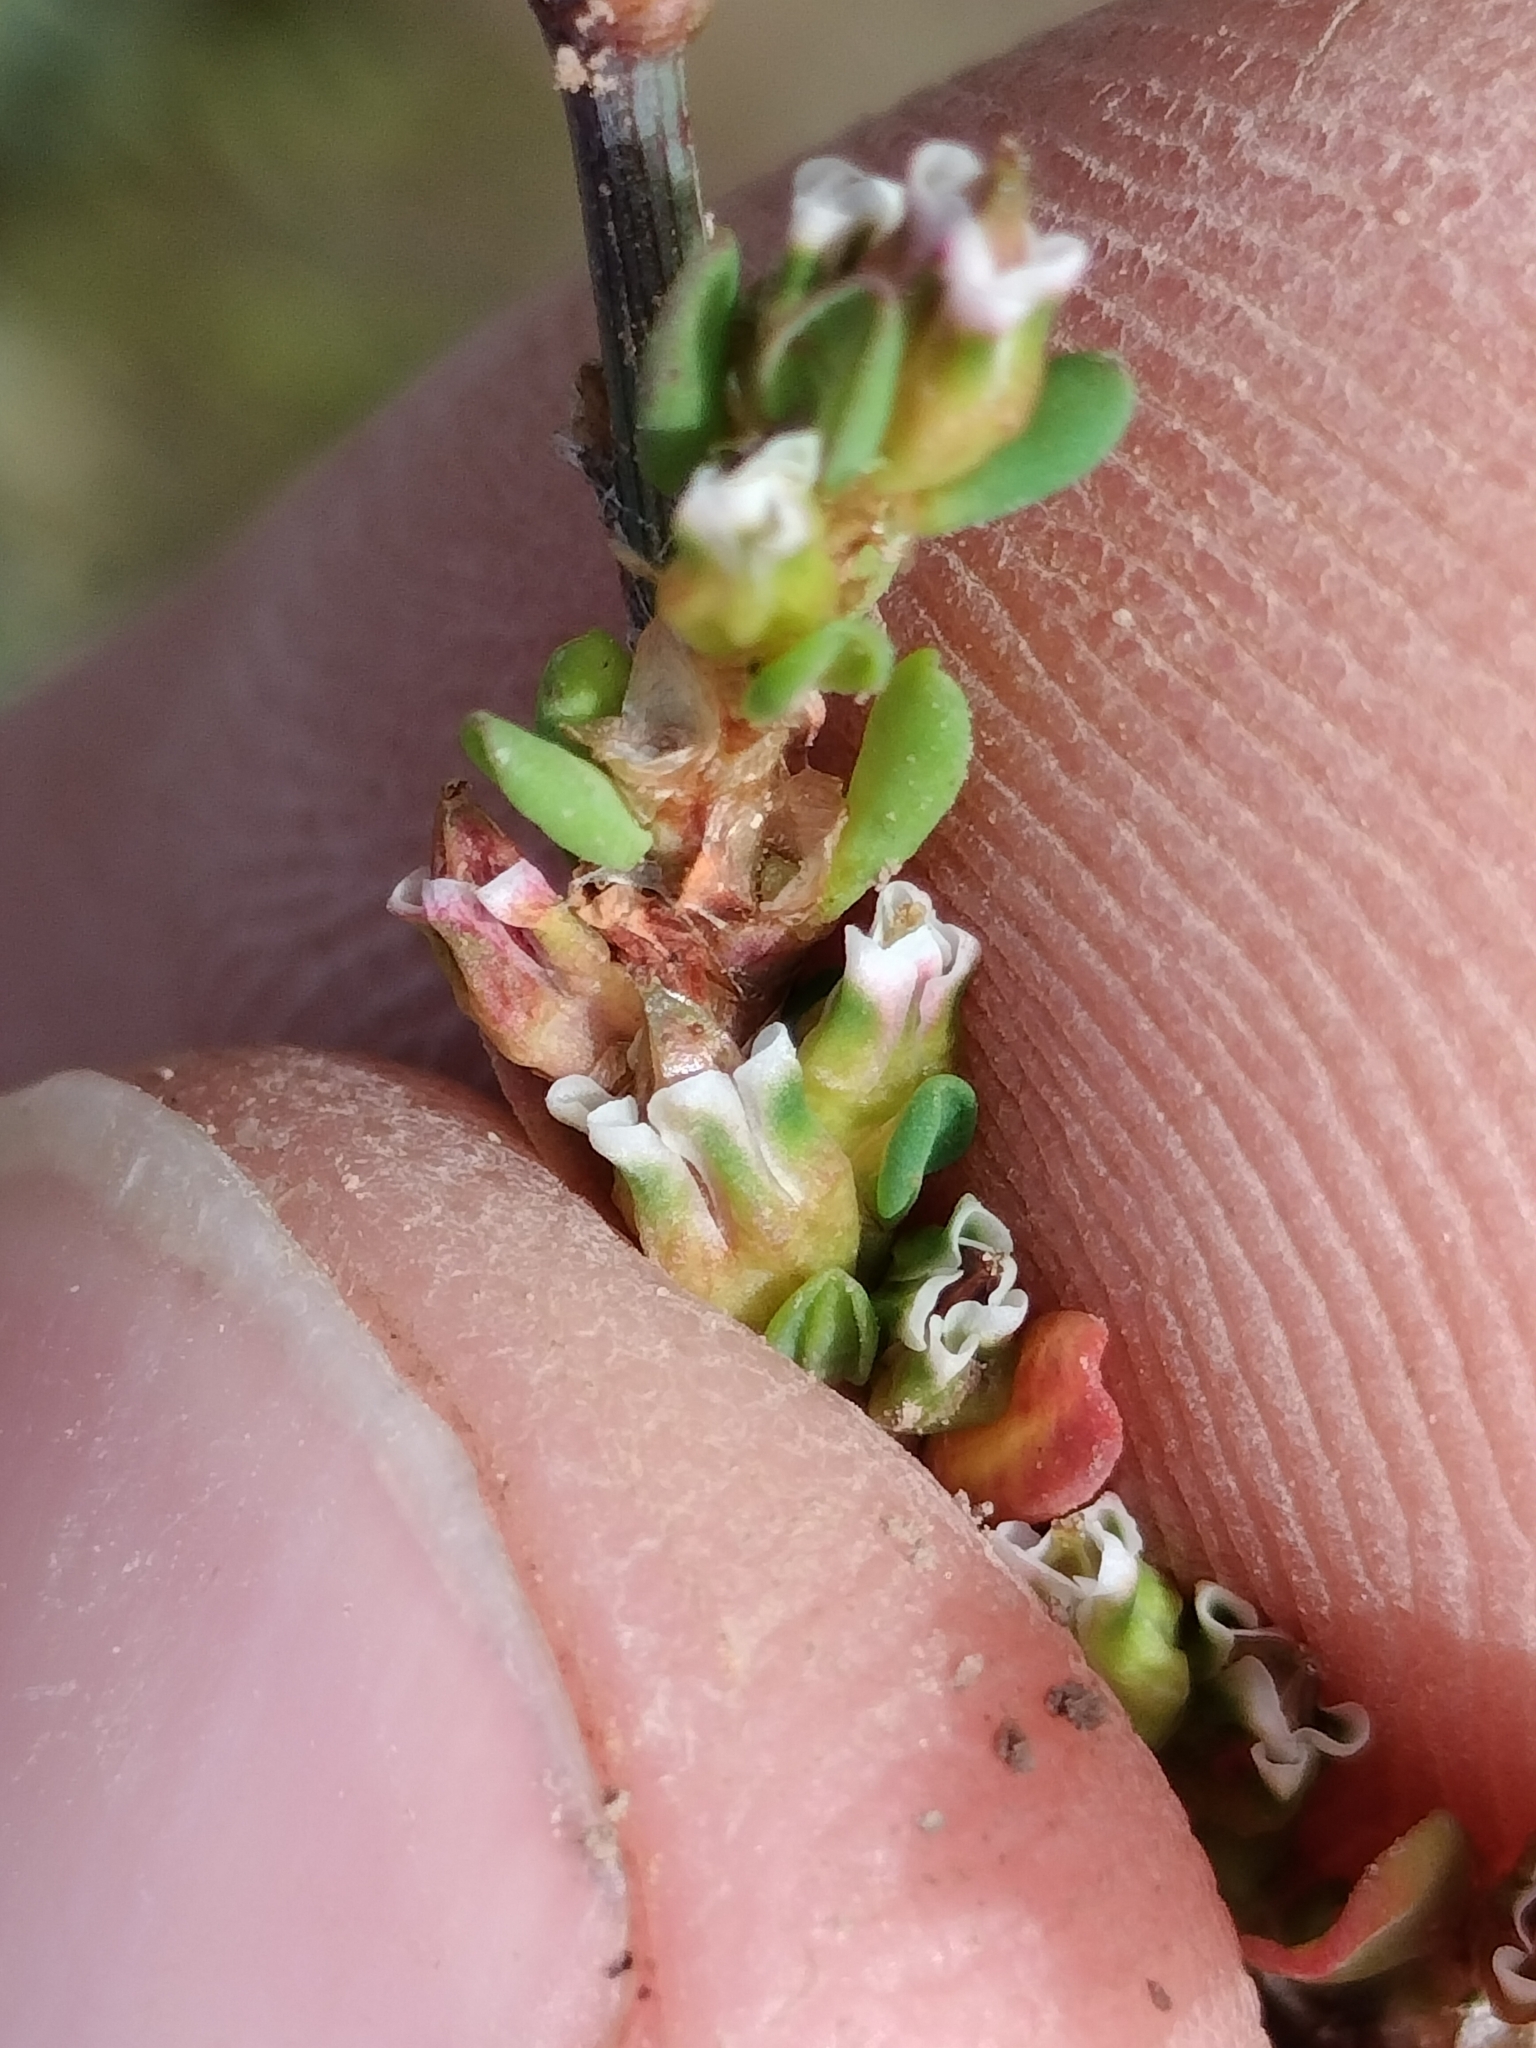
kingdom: Plantae
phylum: Tracheophyta
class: Magnoliopsida
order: Caryophyllales
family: Polygonaceae
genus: Polygonum
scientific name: Polygonum aviculare
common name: Prostrate knotweed
